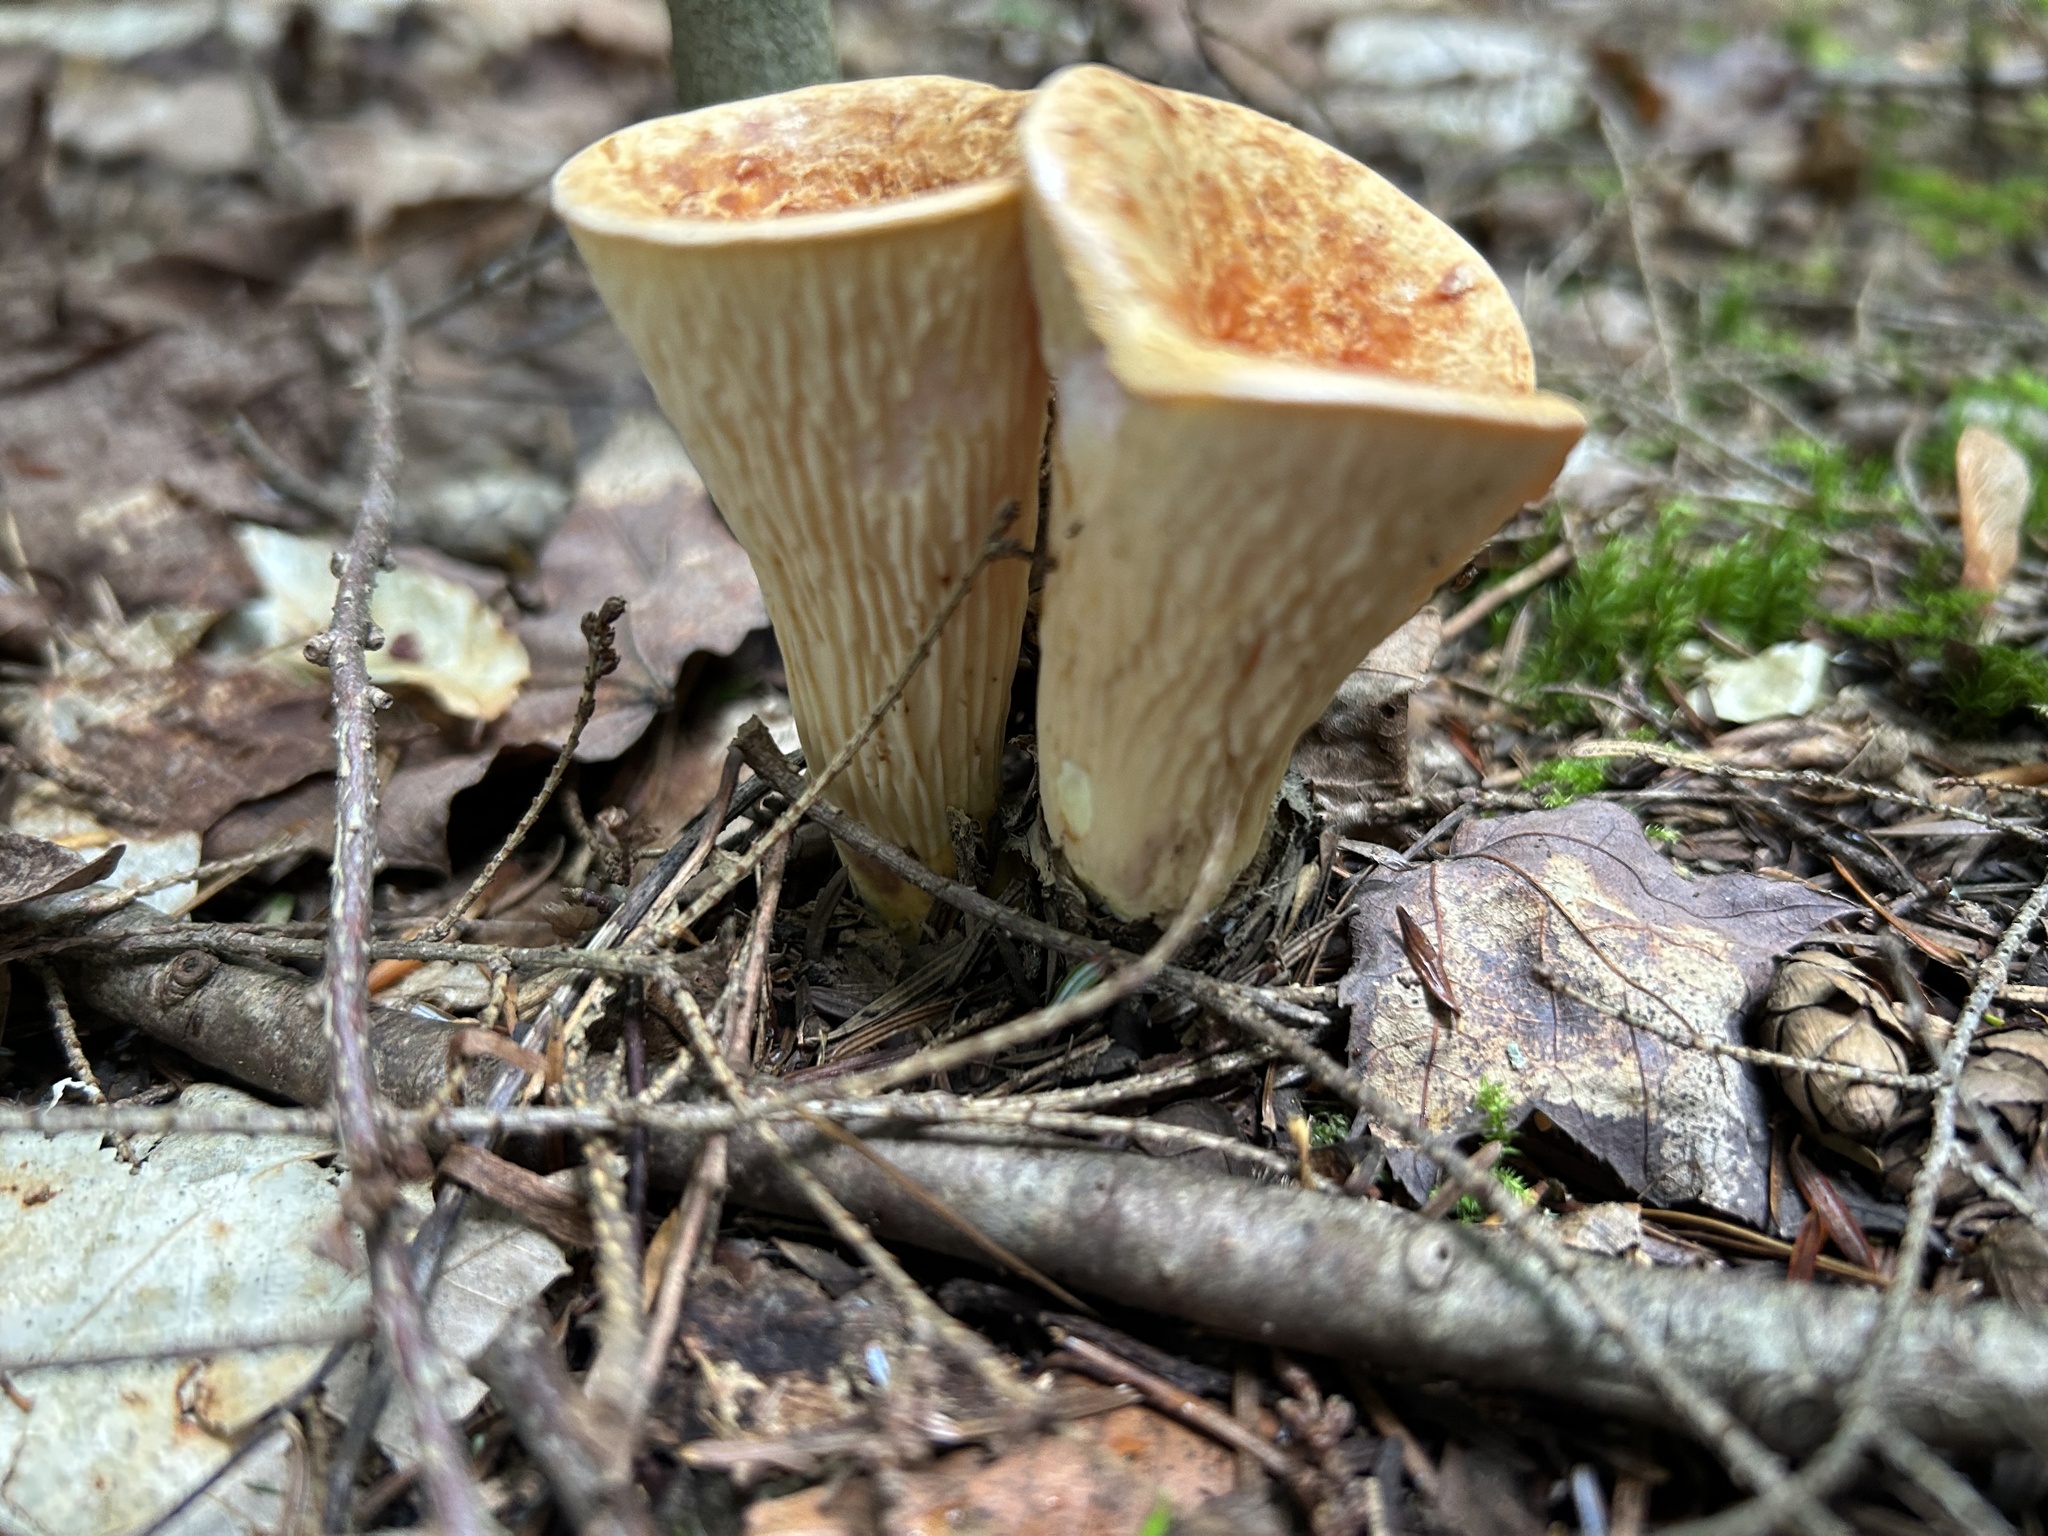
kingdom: Fungi
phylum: Basidiomycota
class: Agaricomycetes
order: Gomphales
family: Gomphaceae
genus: Turbinellus
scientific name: Turbinellus floccosus
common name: Scaly chanterelle
